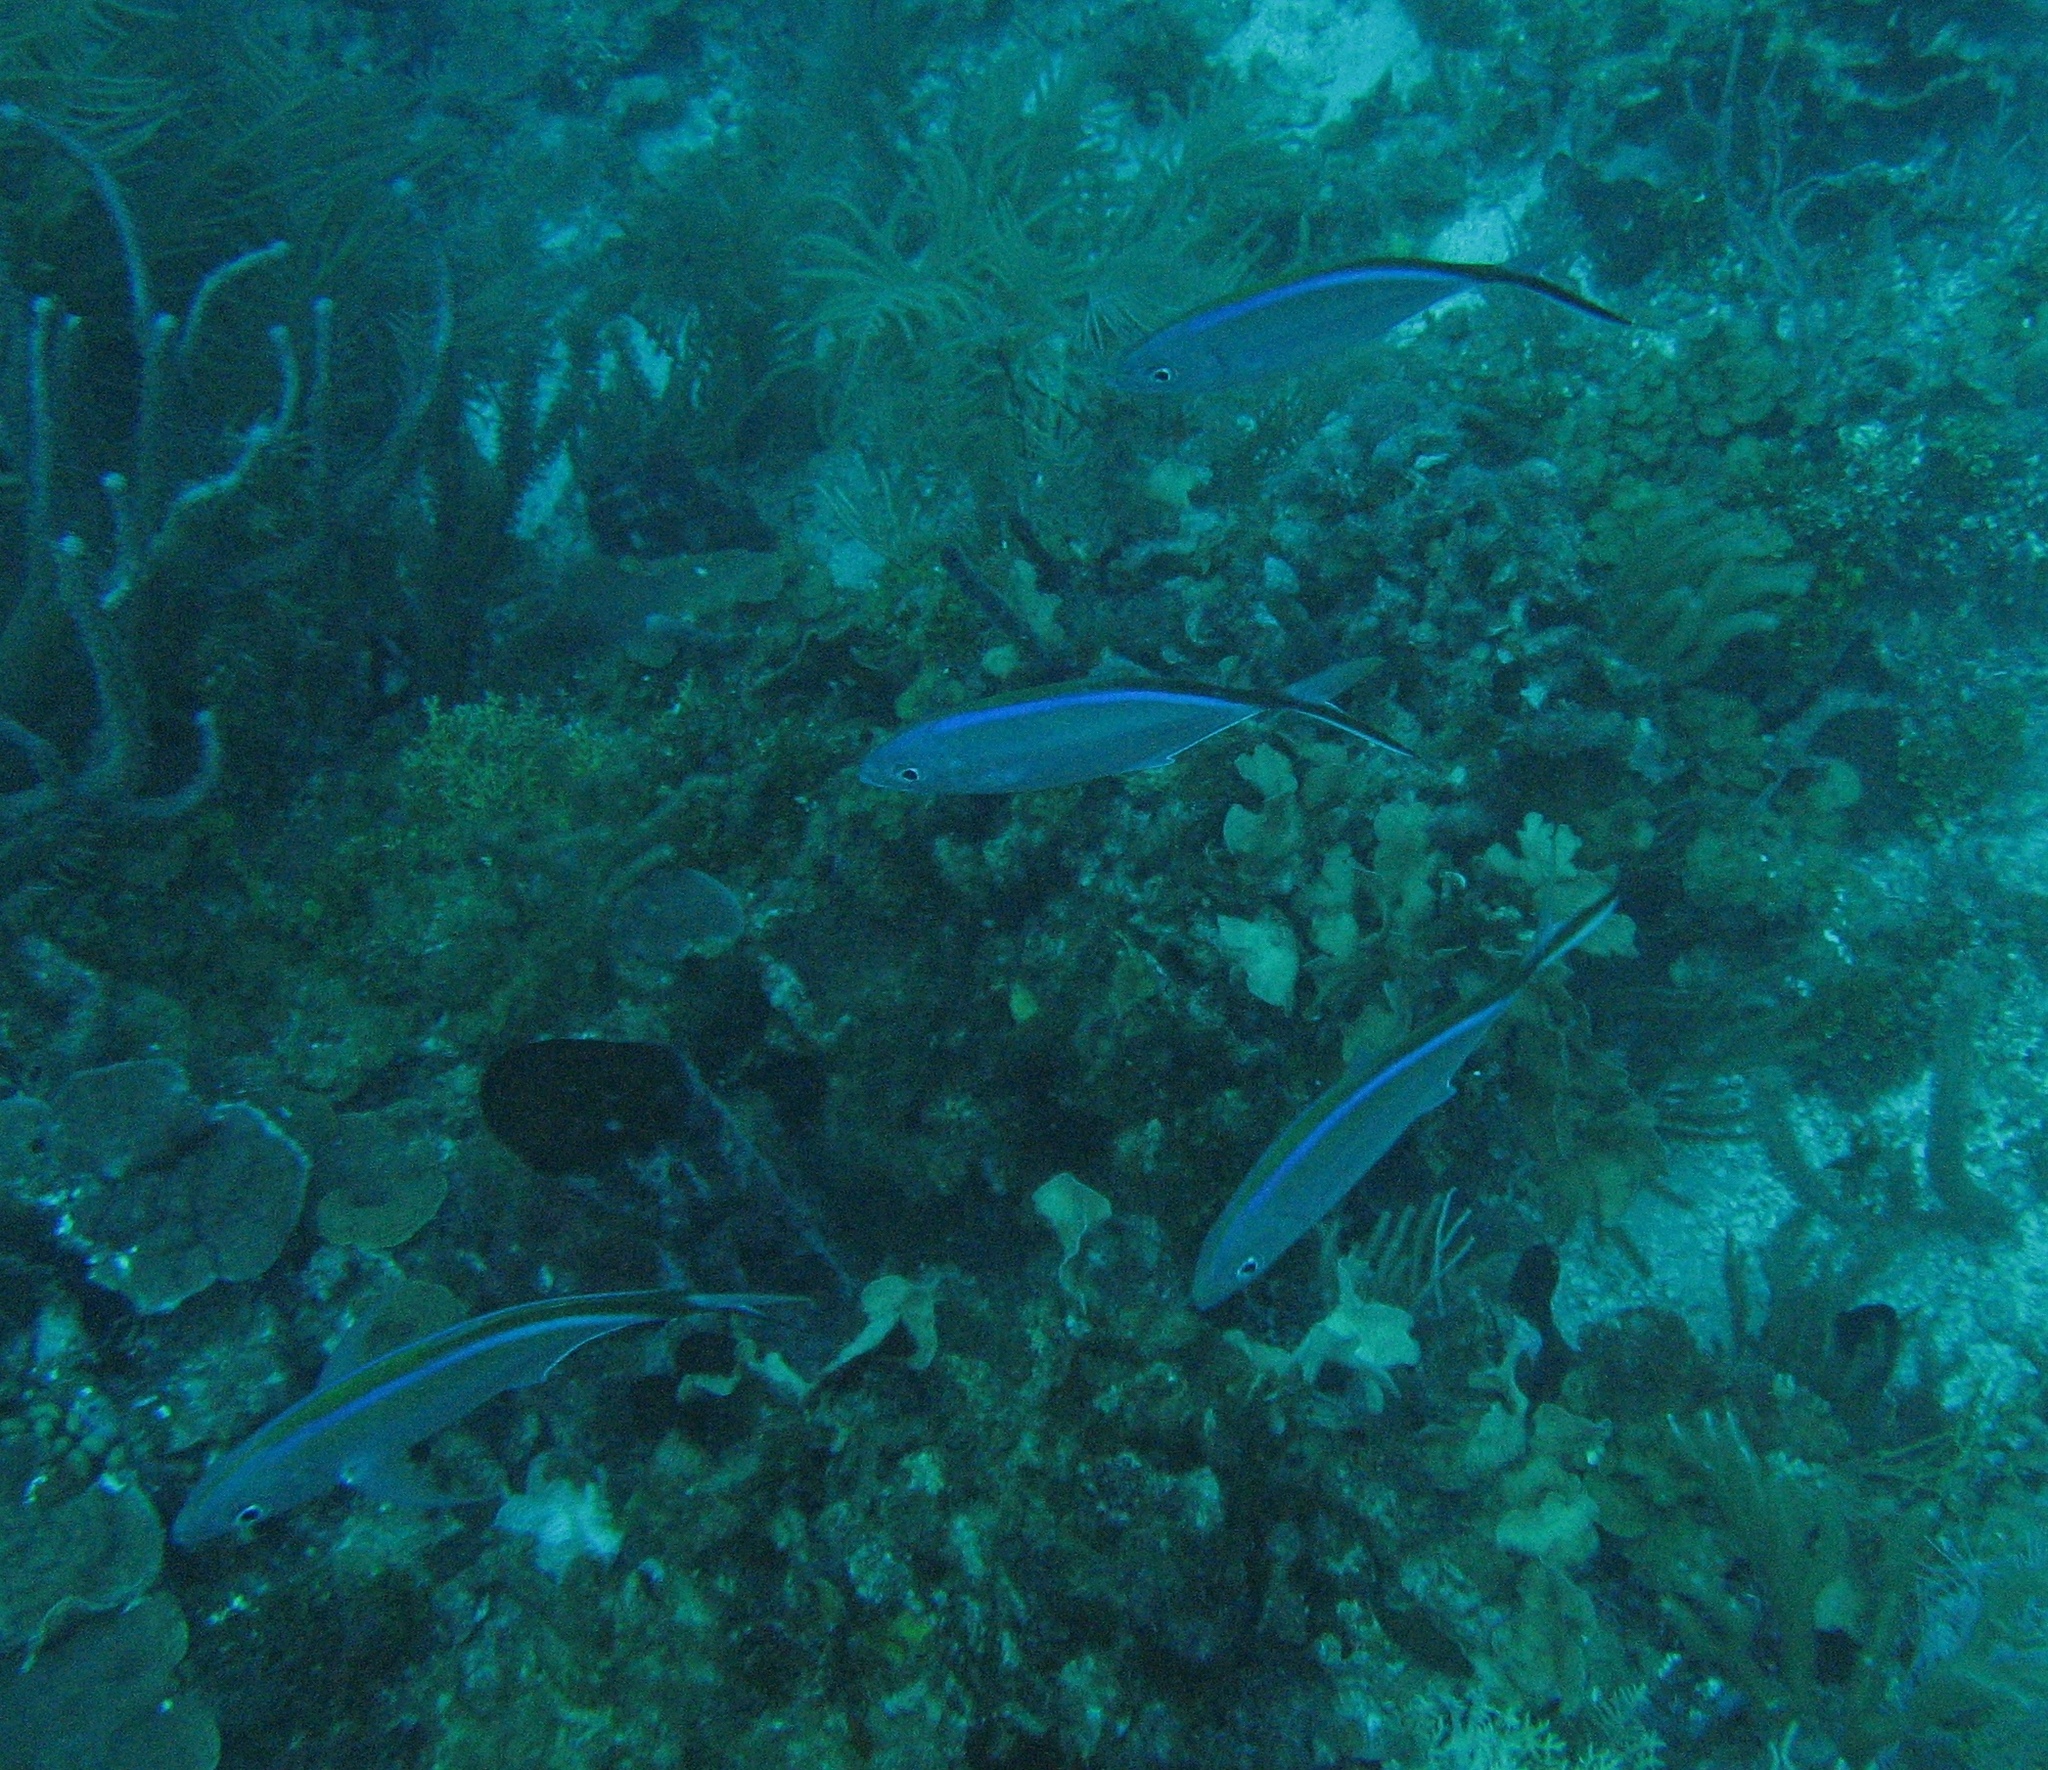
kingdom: Animalia
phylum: Chordata
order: Perciformes
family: Carangidae
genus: Caranx
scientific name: Caranx ruber
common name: Bar jack
